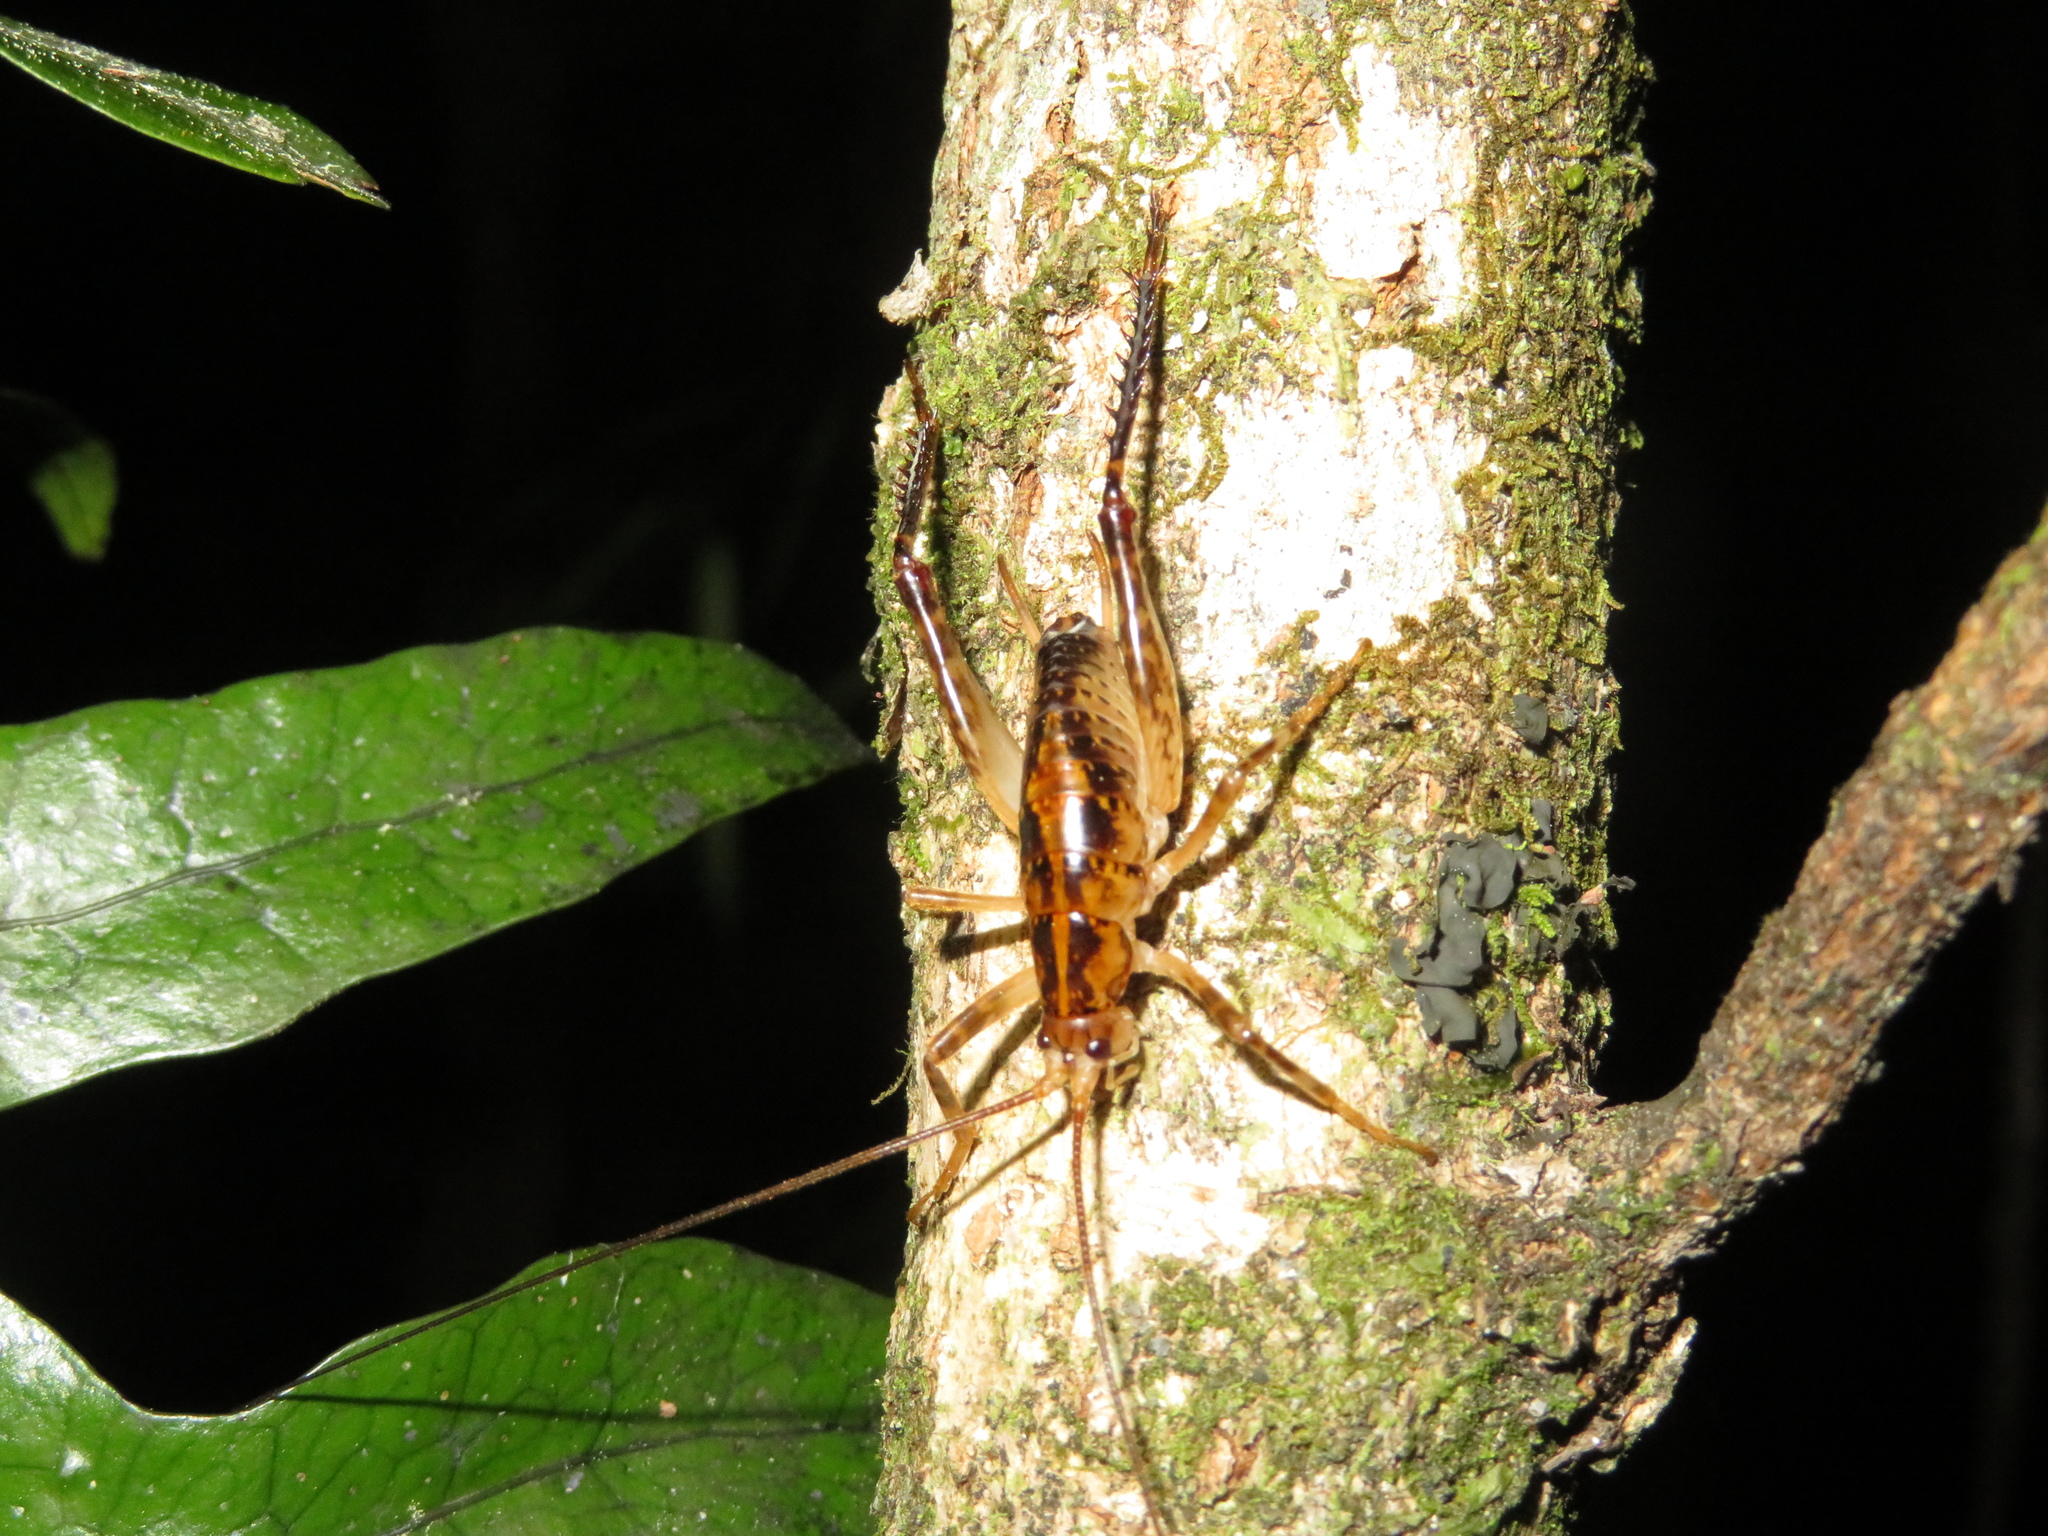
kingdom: Animalia
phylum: Arthropoda
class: Insecta
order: Orthoptera
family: Rhaphidophoridae
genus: Talitropsis
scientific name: Talitropsis sedilloti
